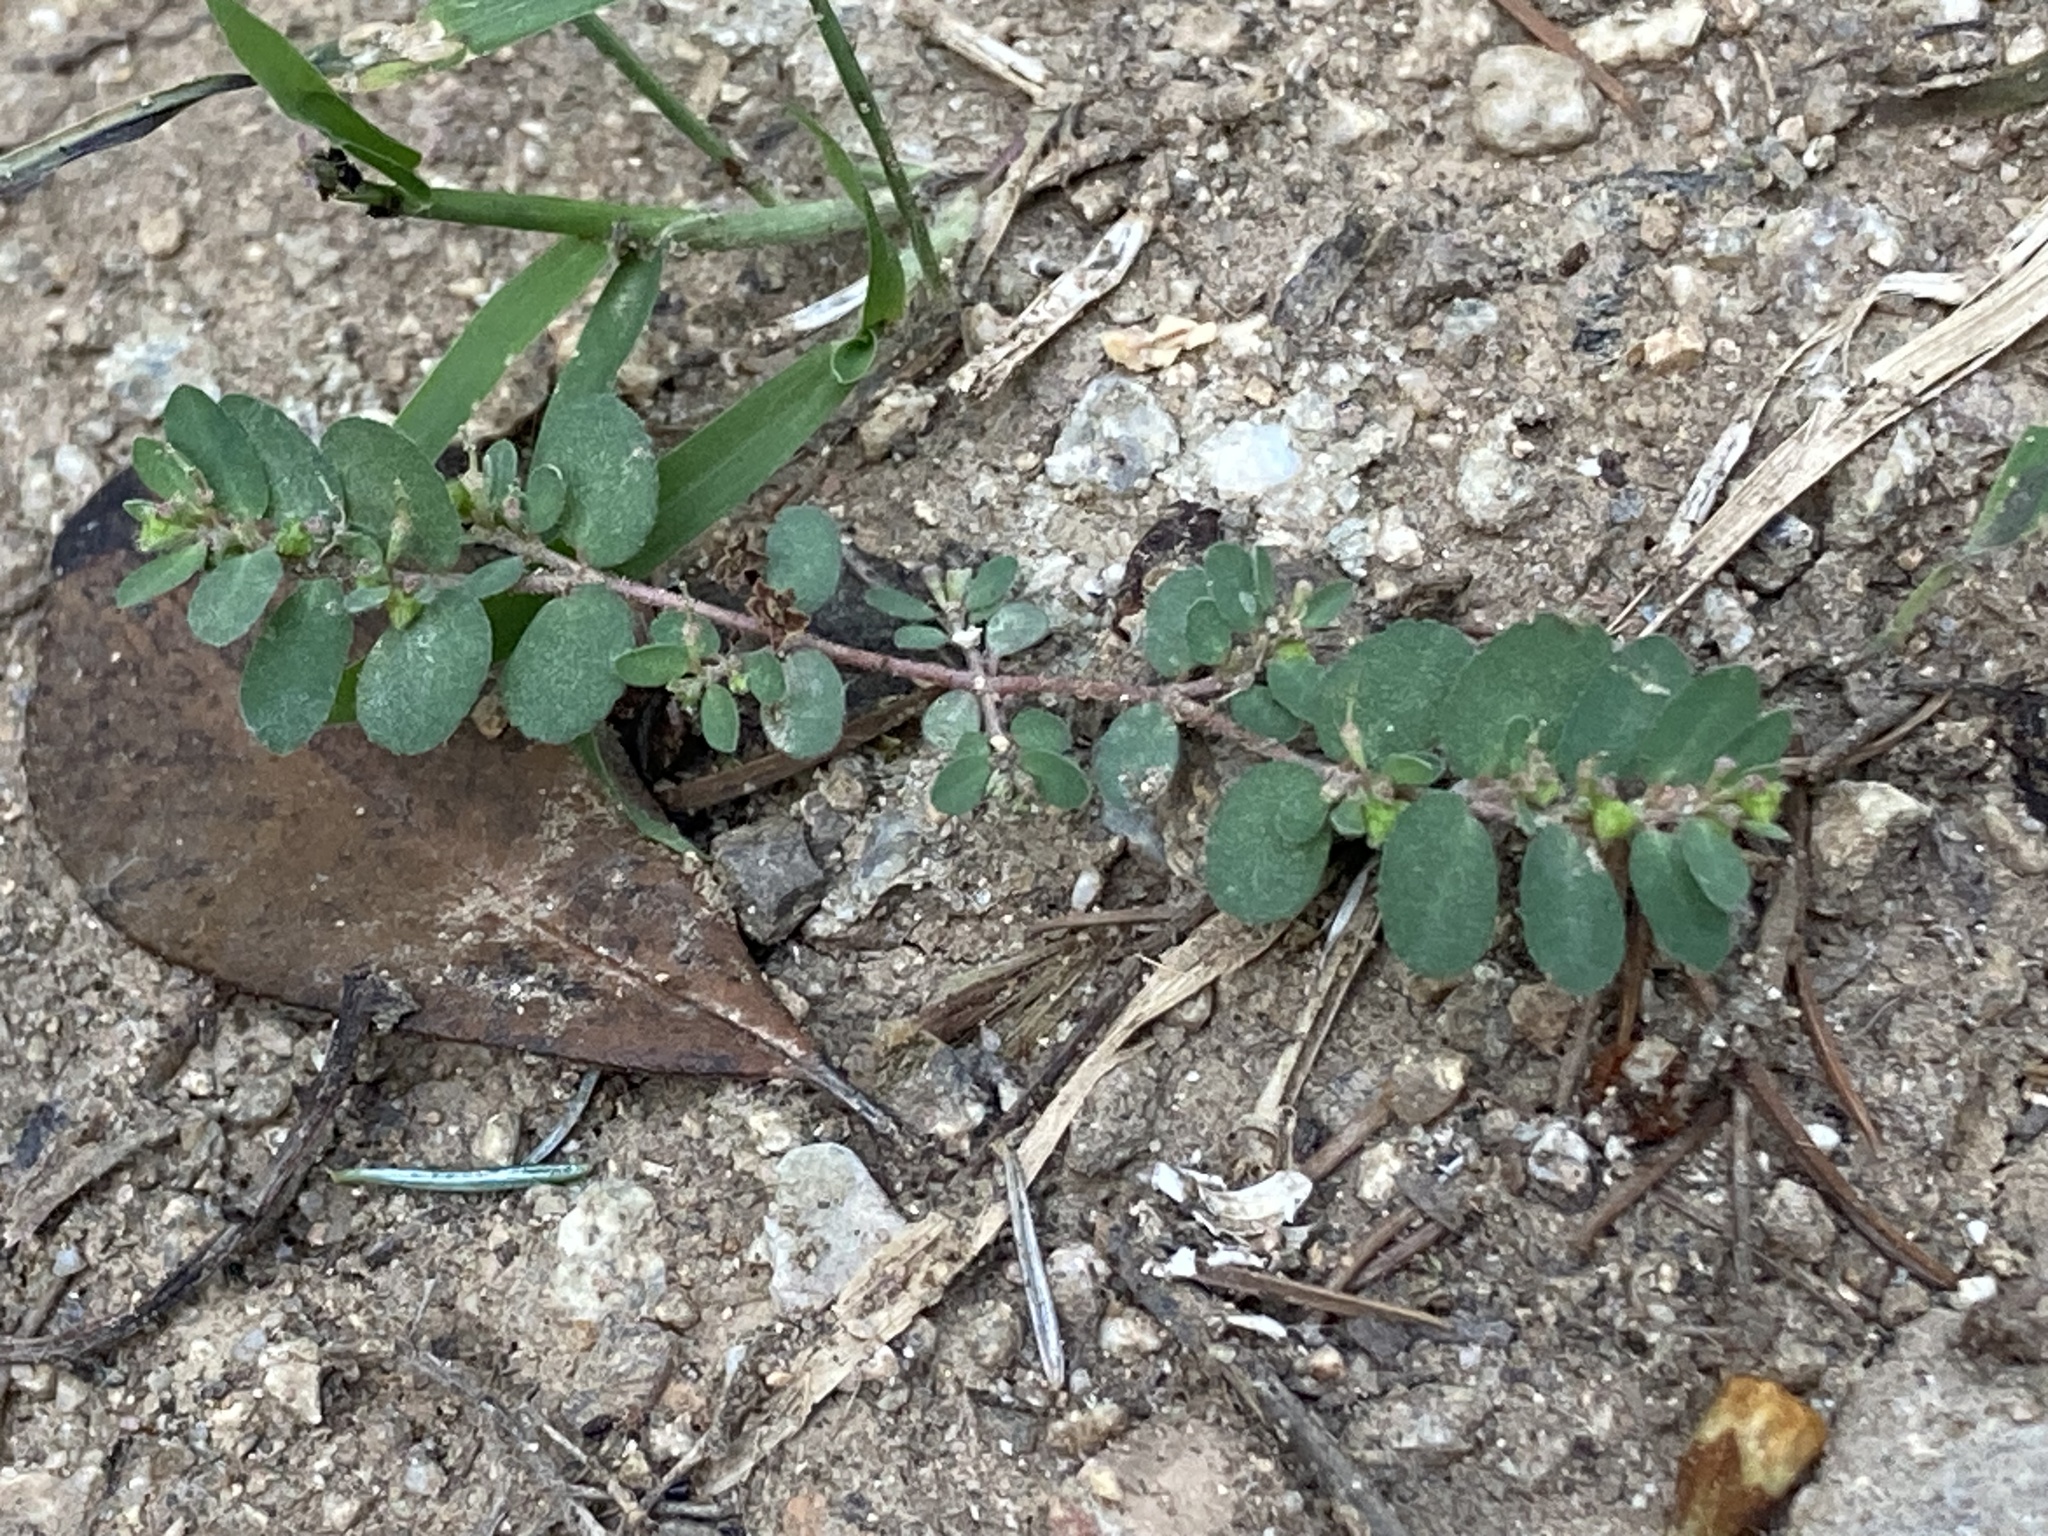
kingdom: Plantae
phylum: Tracheophyta
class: Magnoliopsida
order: Malpighiales
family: Euphorbiaceae
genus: Euphorbia
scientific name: Euphorbia prostrata
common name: Prostrate sandmat
